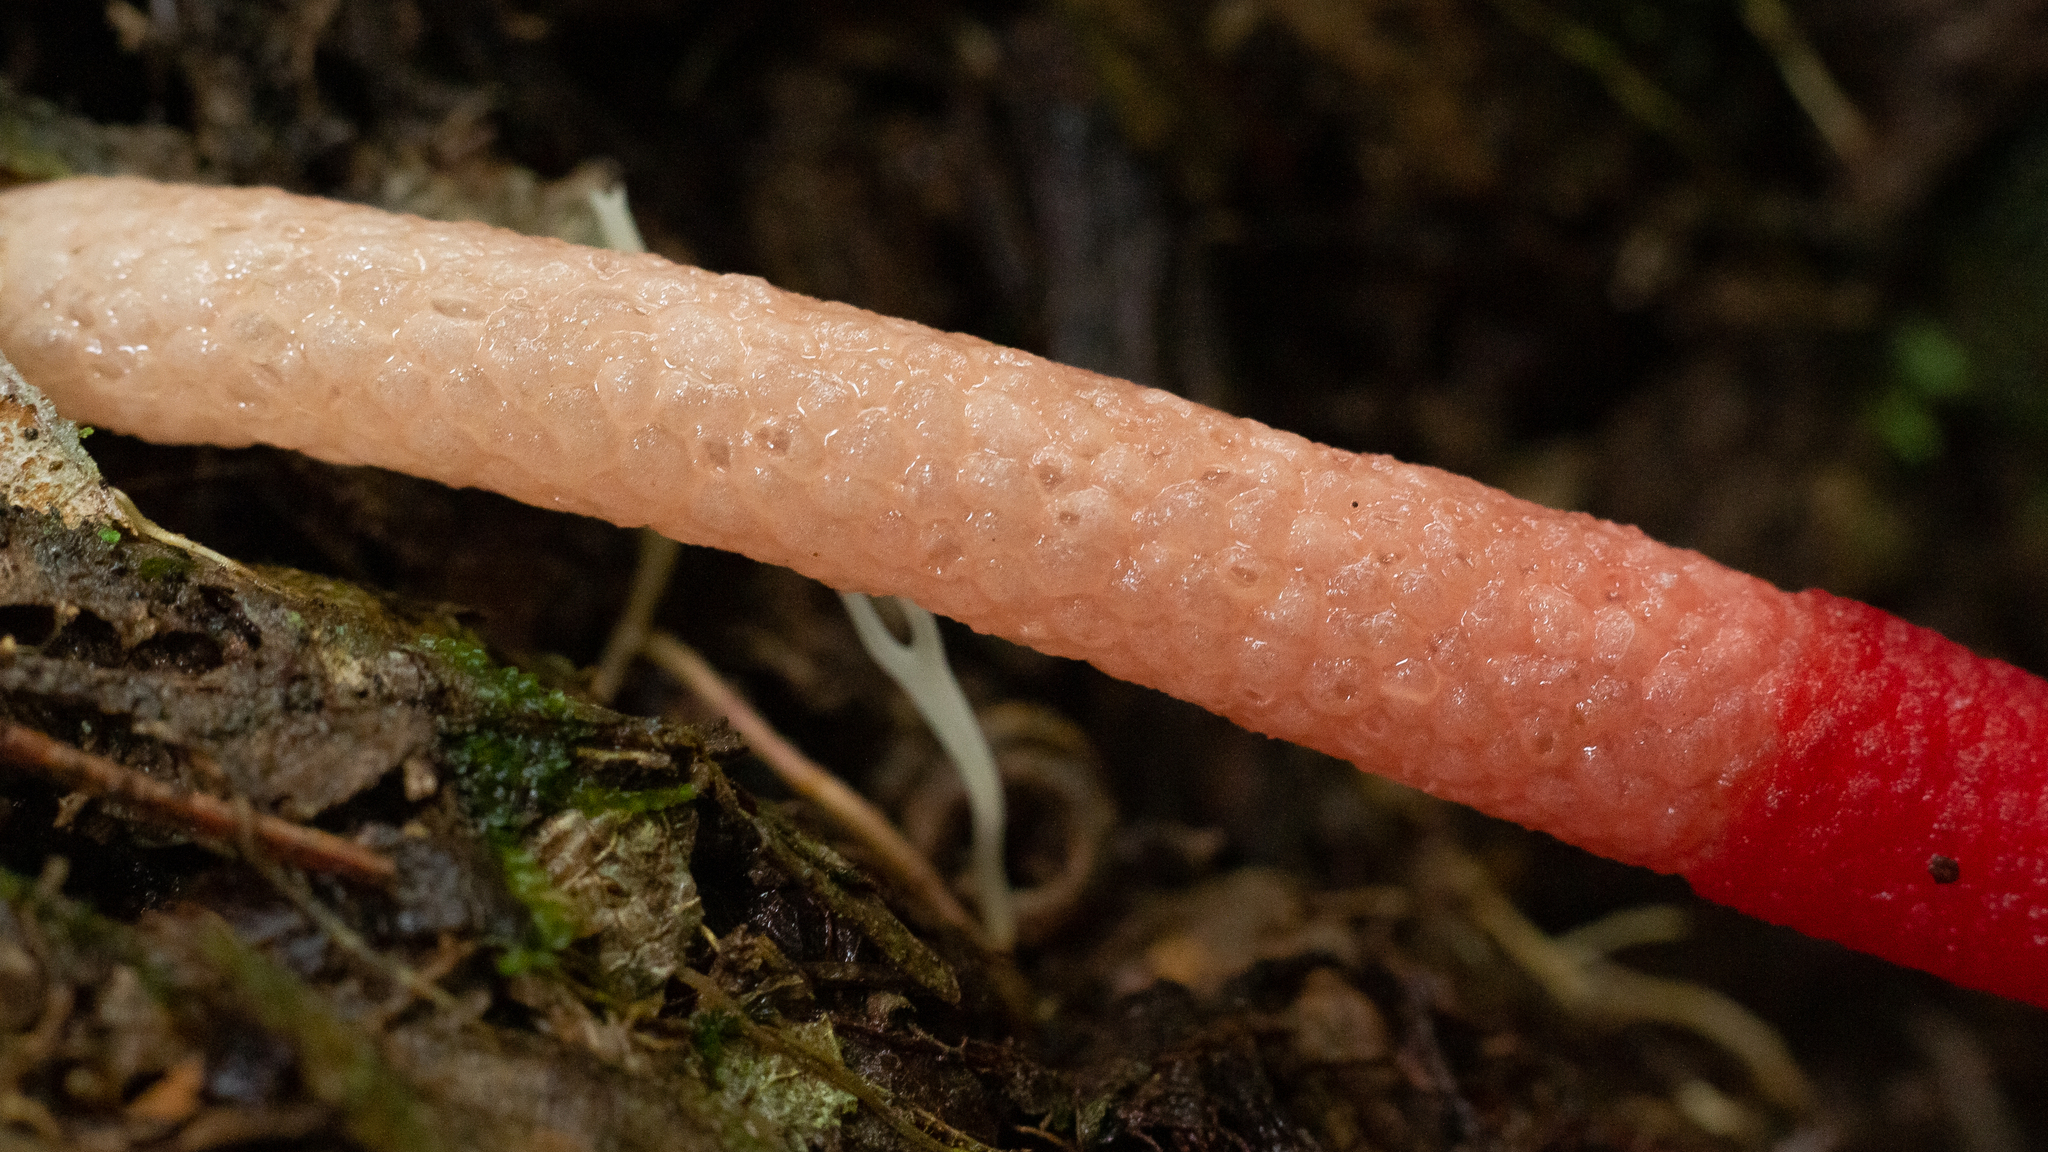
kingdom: Fungi
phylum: Basidiomycota
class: Agaricomycetes
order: Phallales
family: Phallaceae
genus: Mutinus
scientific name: Mutinus argentinus
